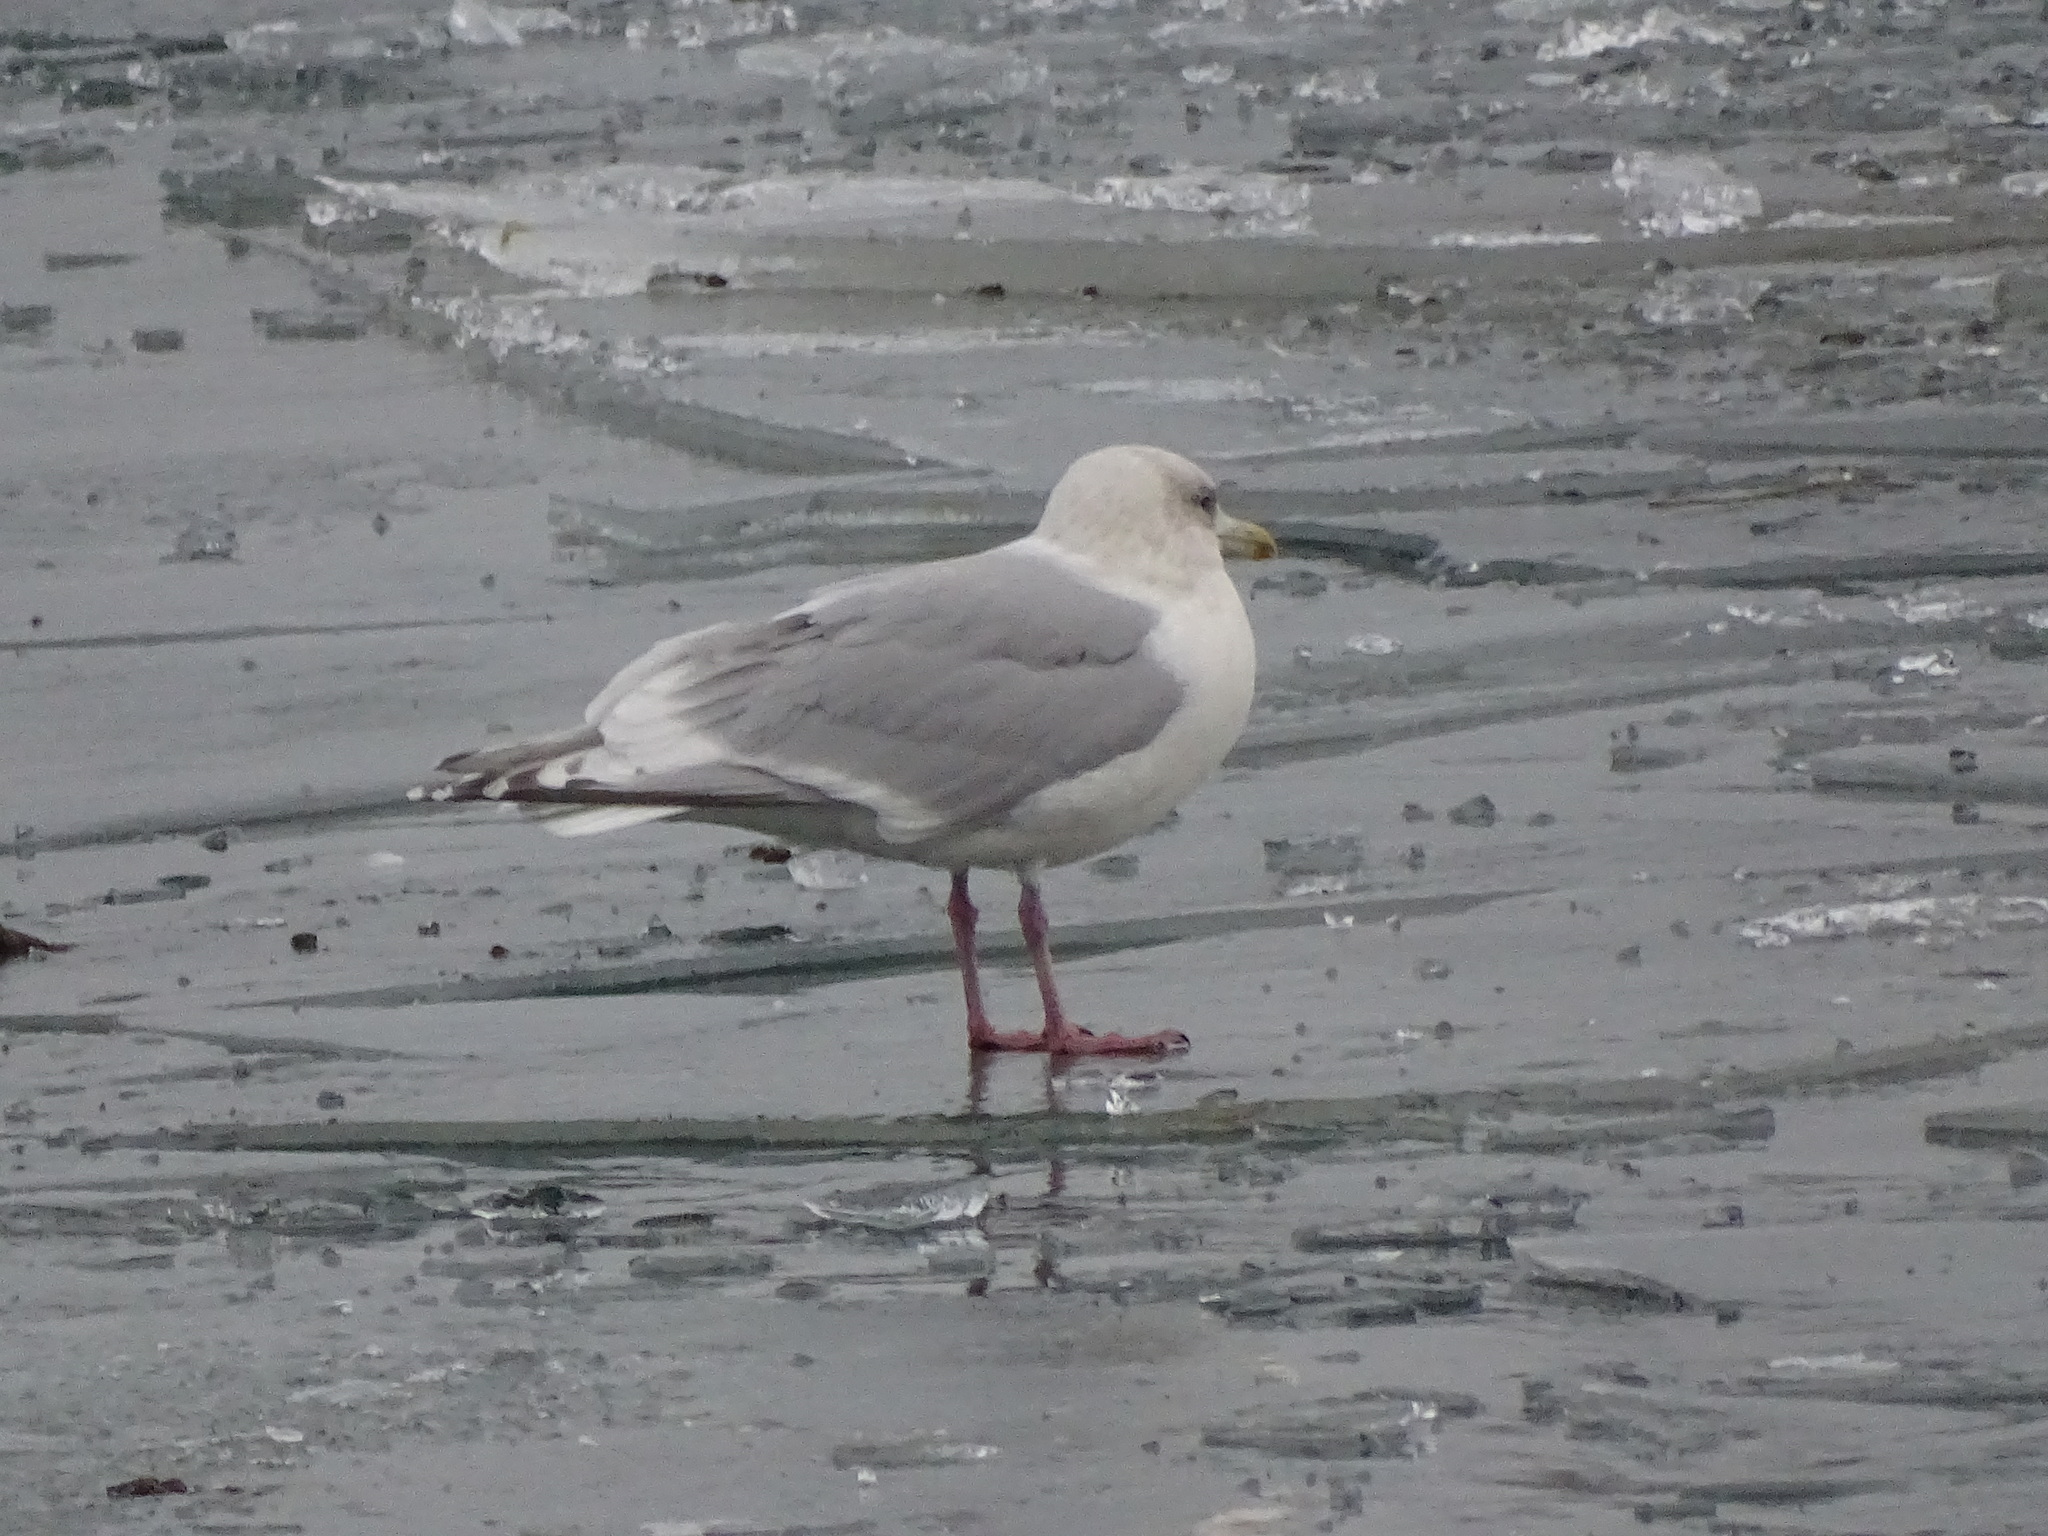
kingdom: Animalia
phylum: Chordata
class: Aves
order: Charadriiformes
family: Laridae
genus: Larus
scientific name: Larus glaucoides
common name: Iceland gull
